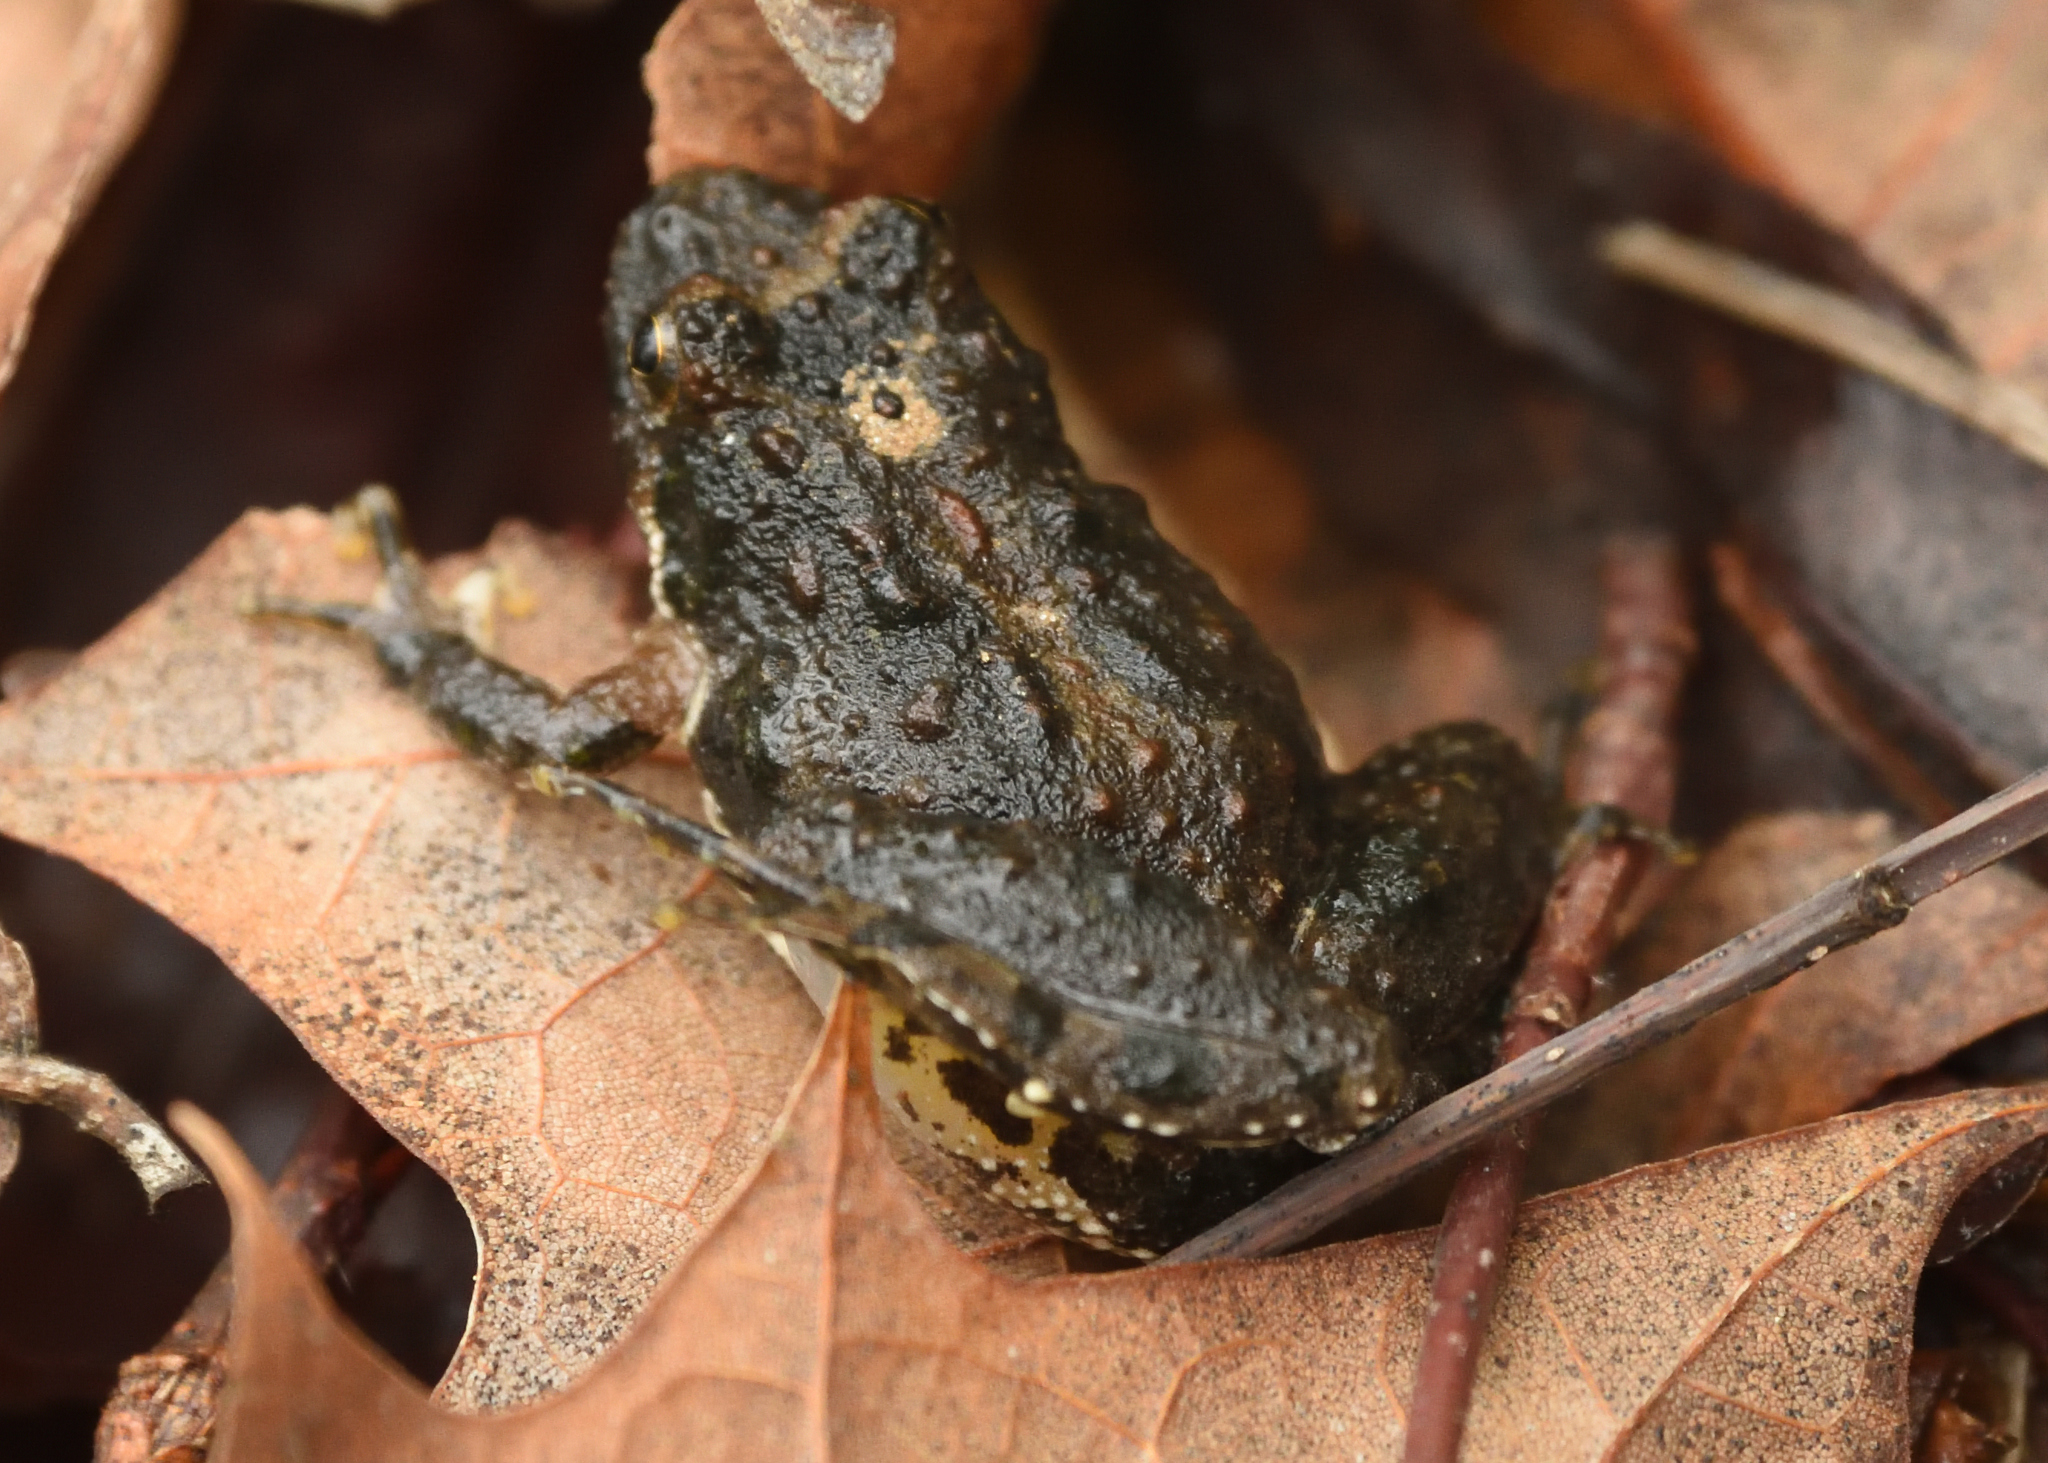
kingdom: Animalia
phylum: Chordata
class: Amphibia
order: Anura
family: Hylidae
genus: Acris
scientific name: Acris crepitans
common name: Northern cricket frog
